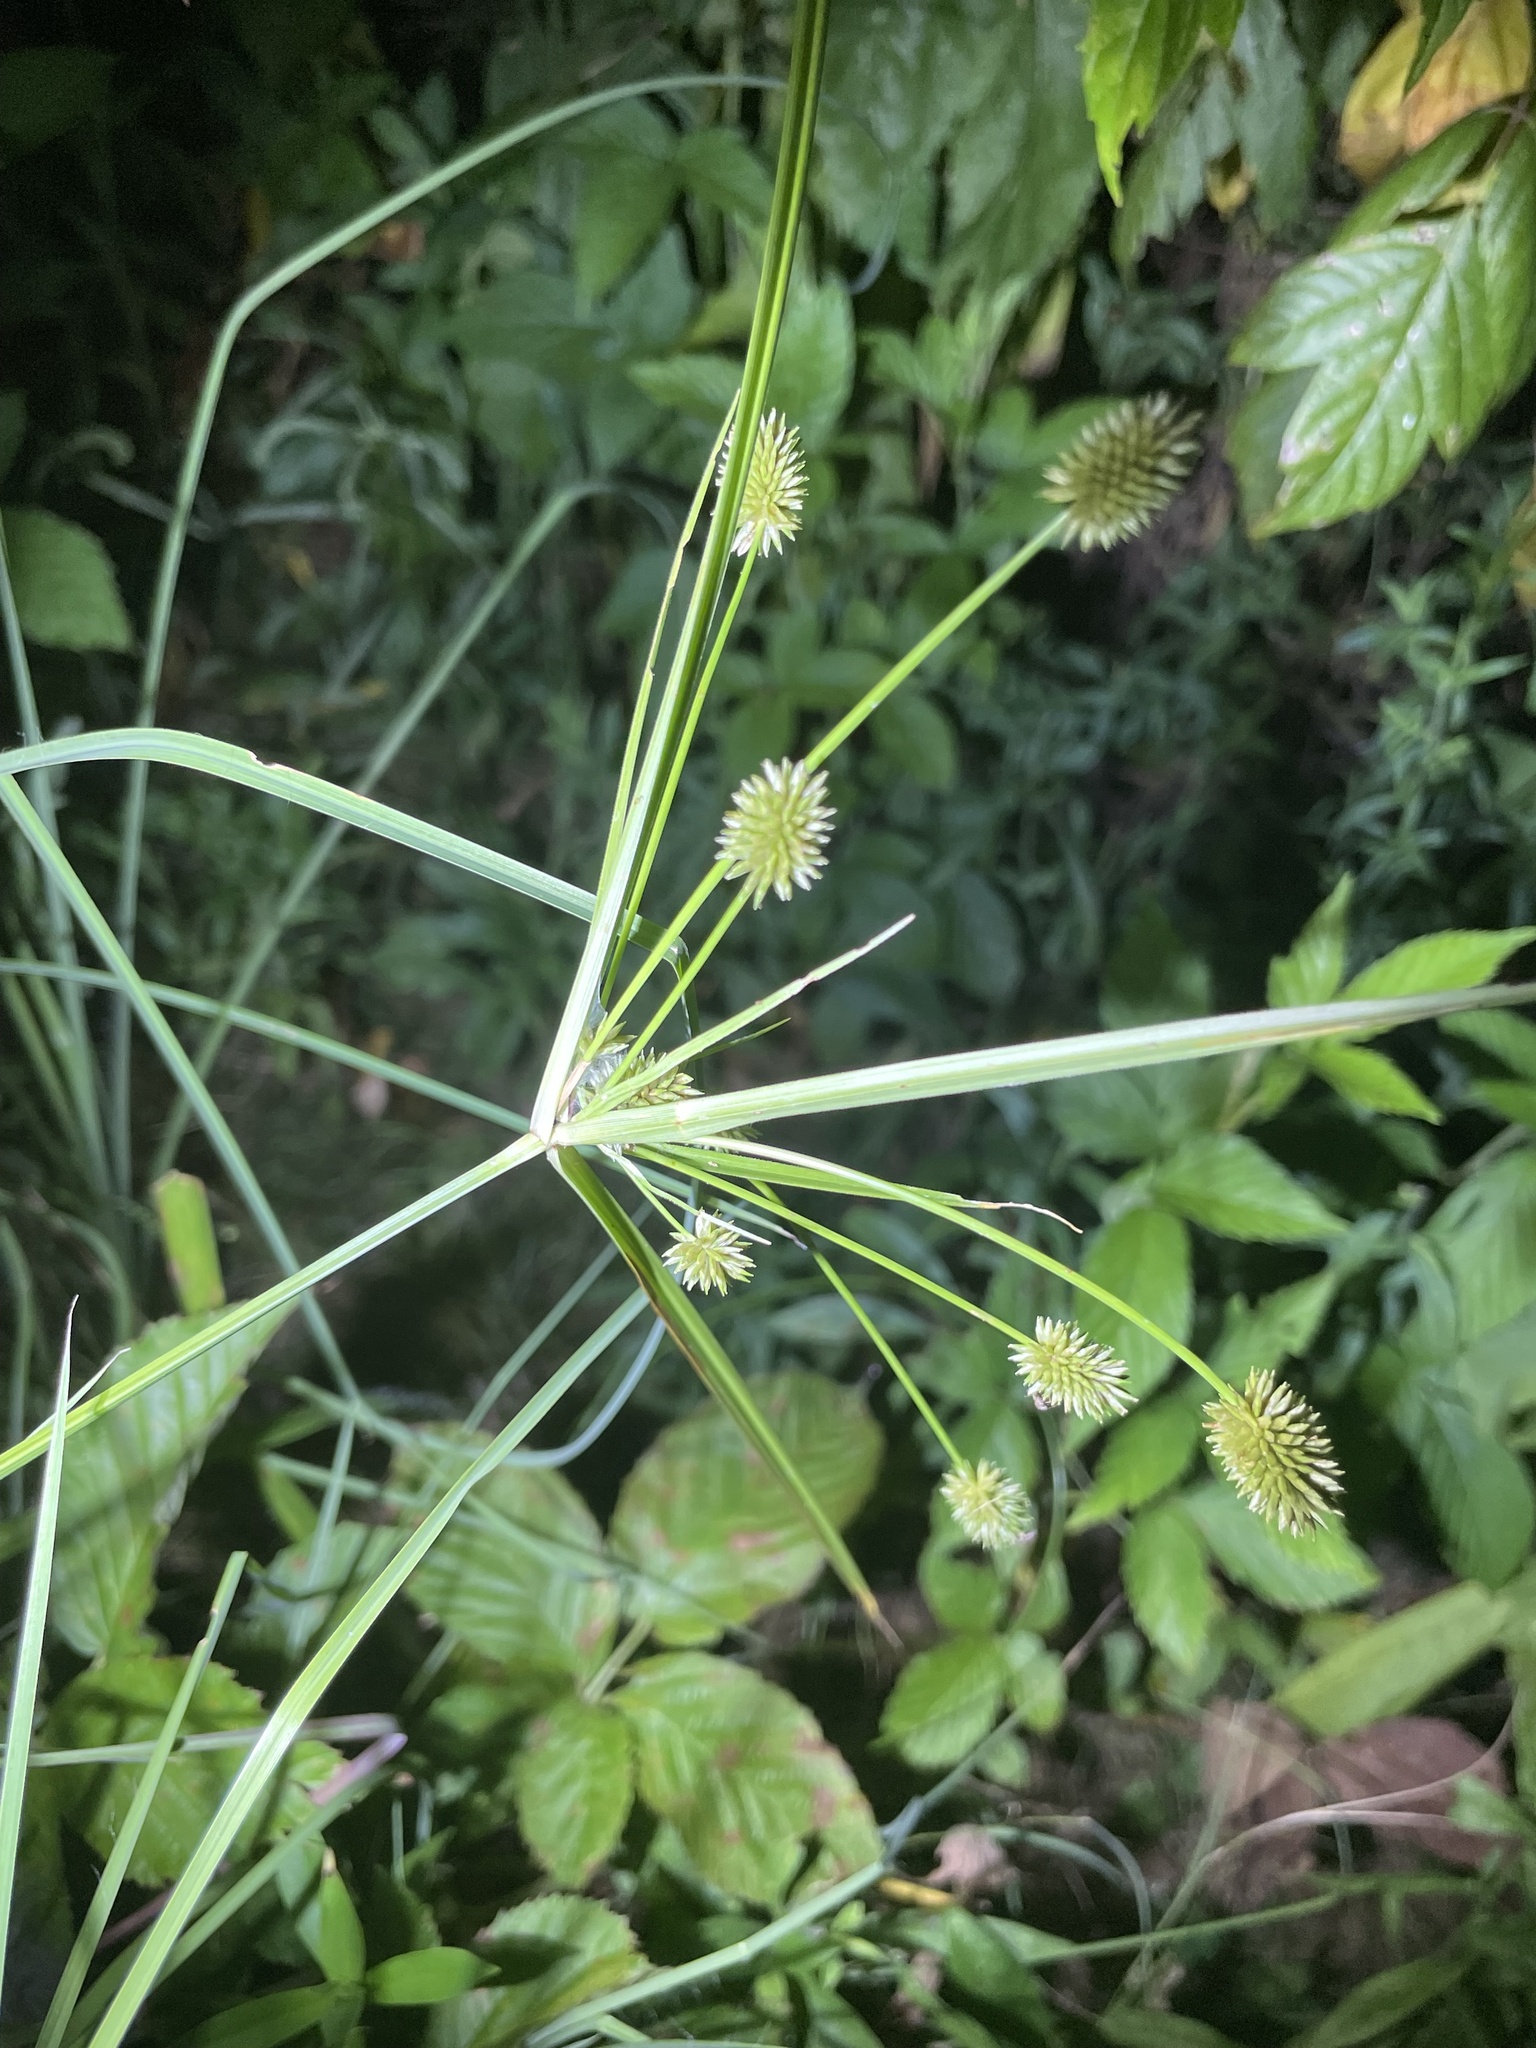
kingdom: Plantae
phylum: Tracheophyta
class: Liliopsida
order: Poales
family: Cyperaceae
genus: Cyperus
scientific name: Cyperus retrorsus
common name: Pinebarren flat sedge
